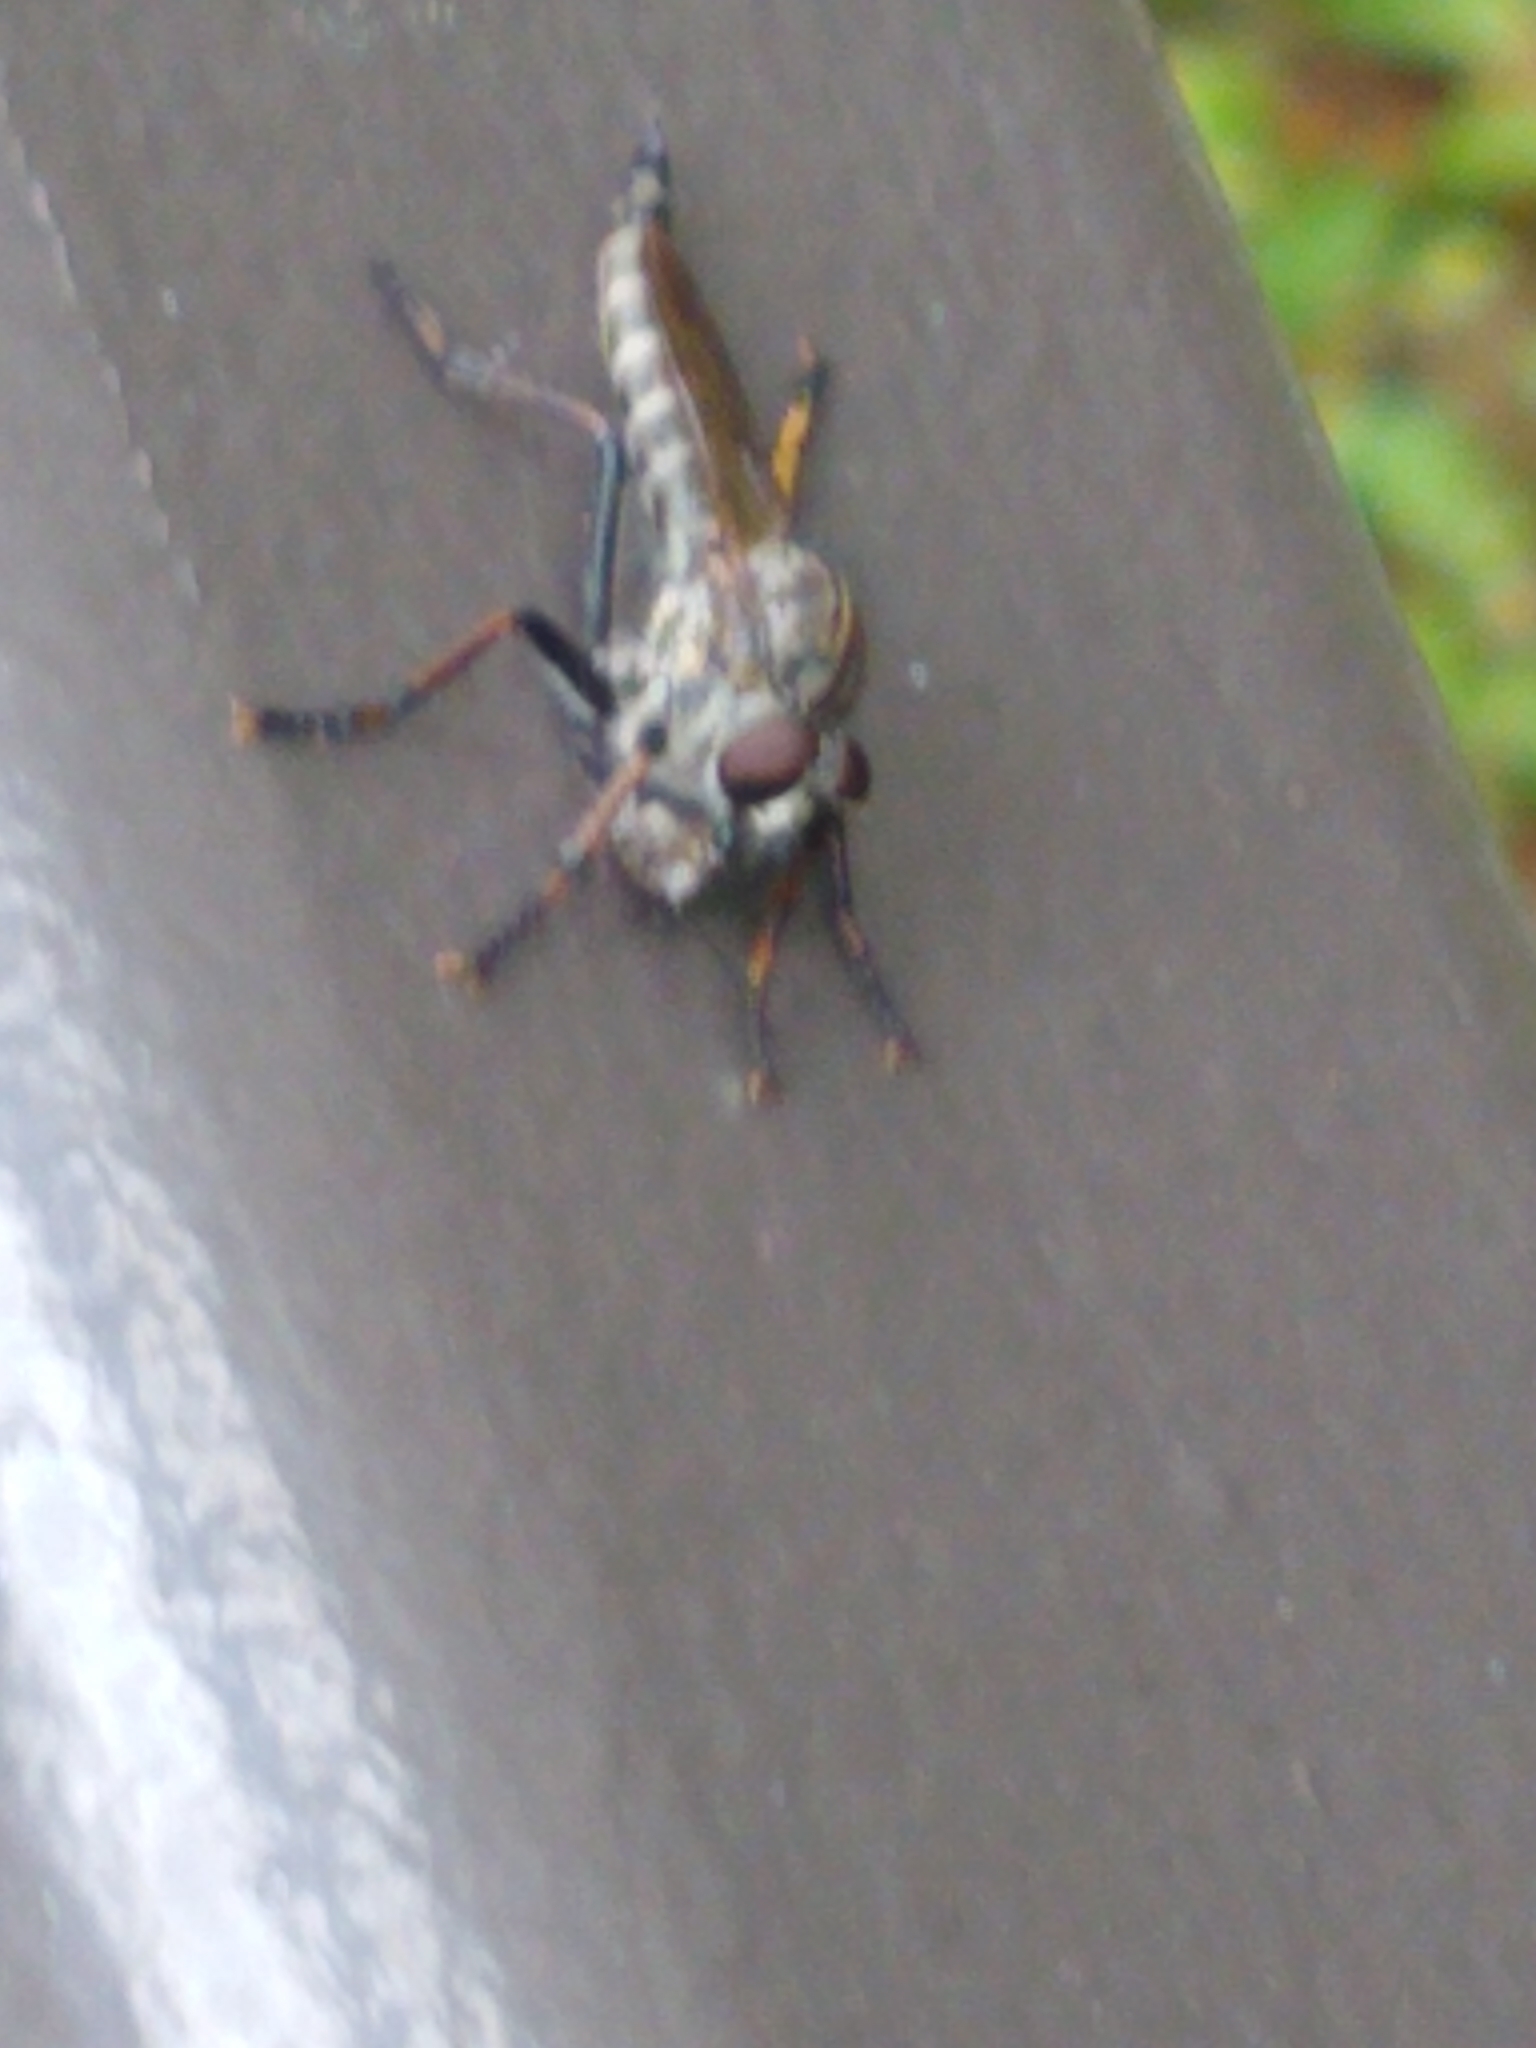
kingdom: Animalia
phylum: Arthropoda
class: Insecta
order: Diptera
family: Asilidae
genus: Machimus
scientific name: Machimus sadyates
